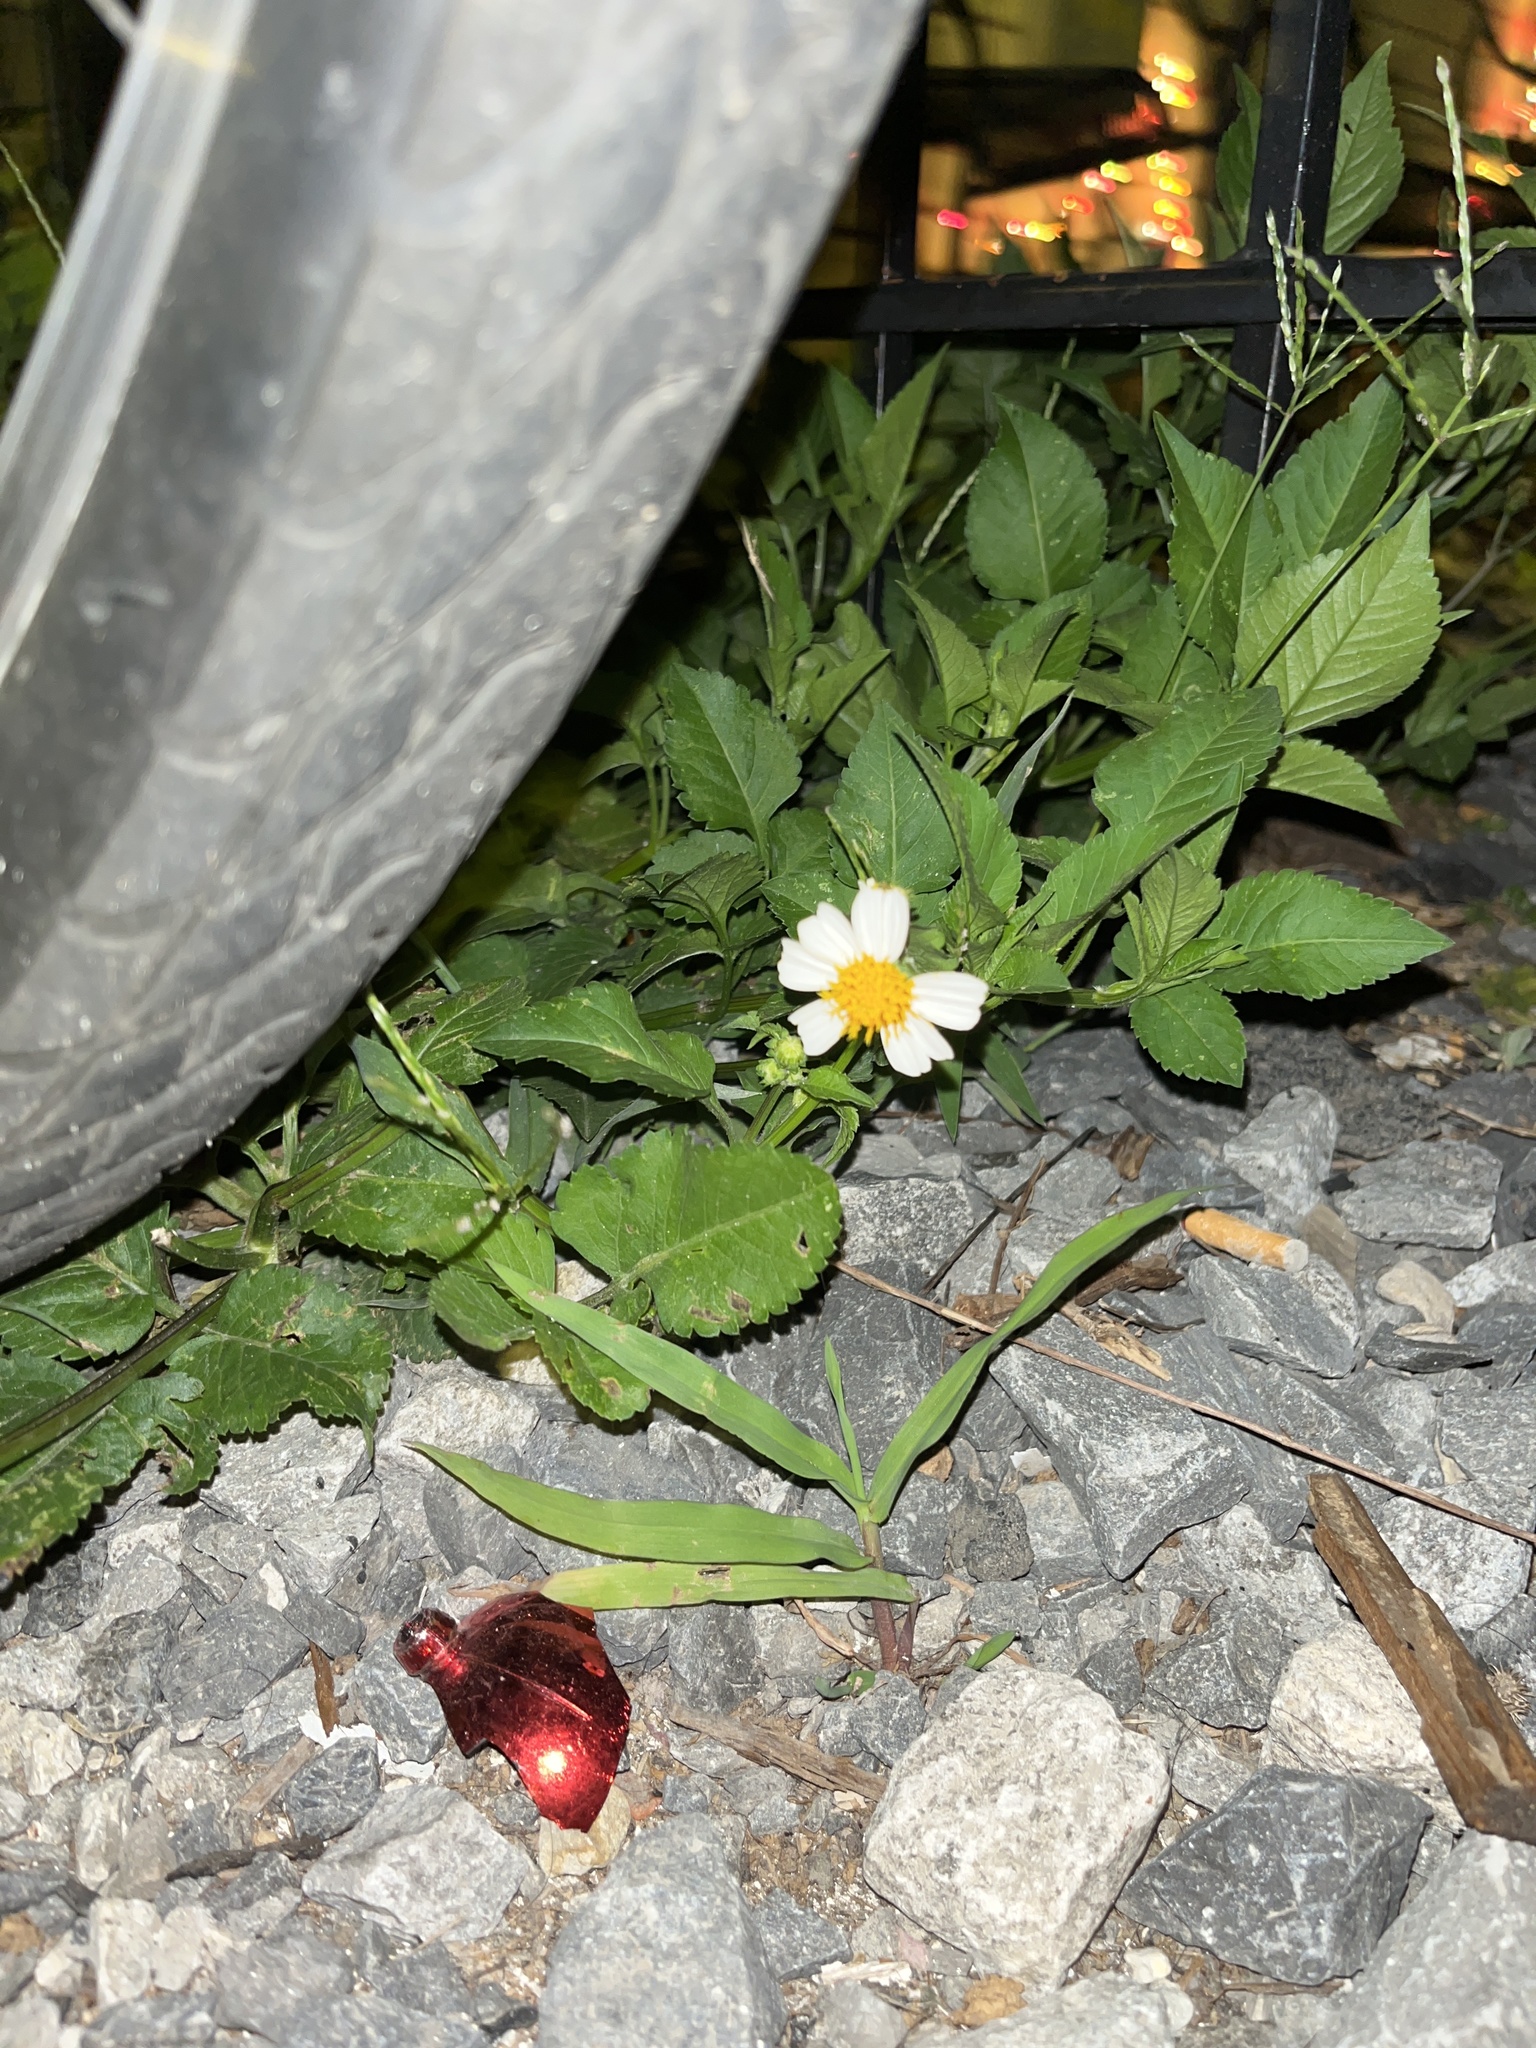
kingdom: Plantae
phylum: Tracheophyta
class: Magnoliopsida
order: Asterales
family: Asteraceae
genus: Bidens
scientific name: Bidens alba
